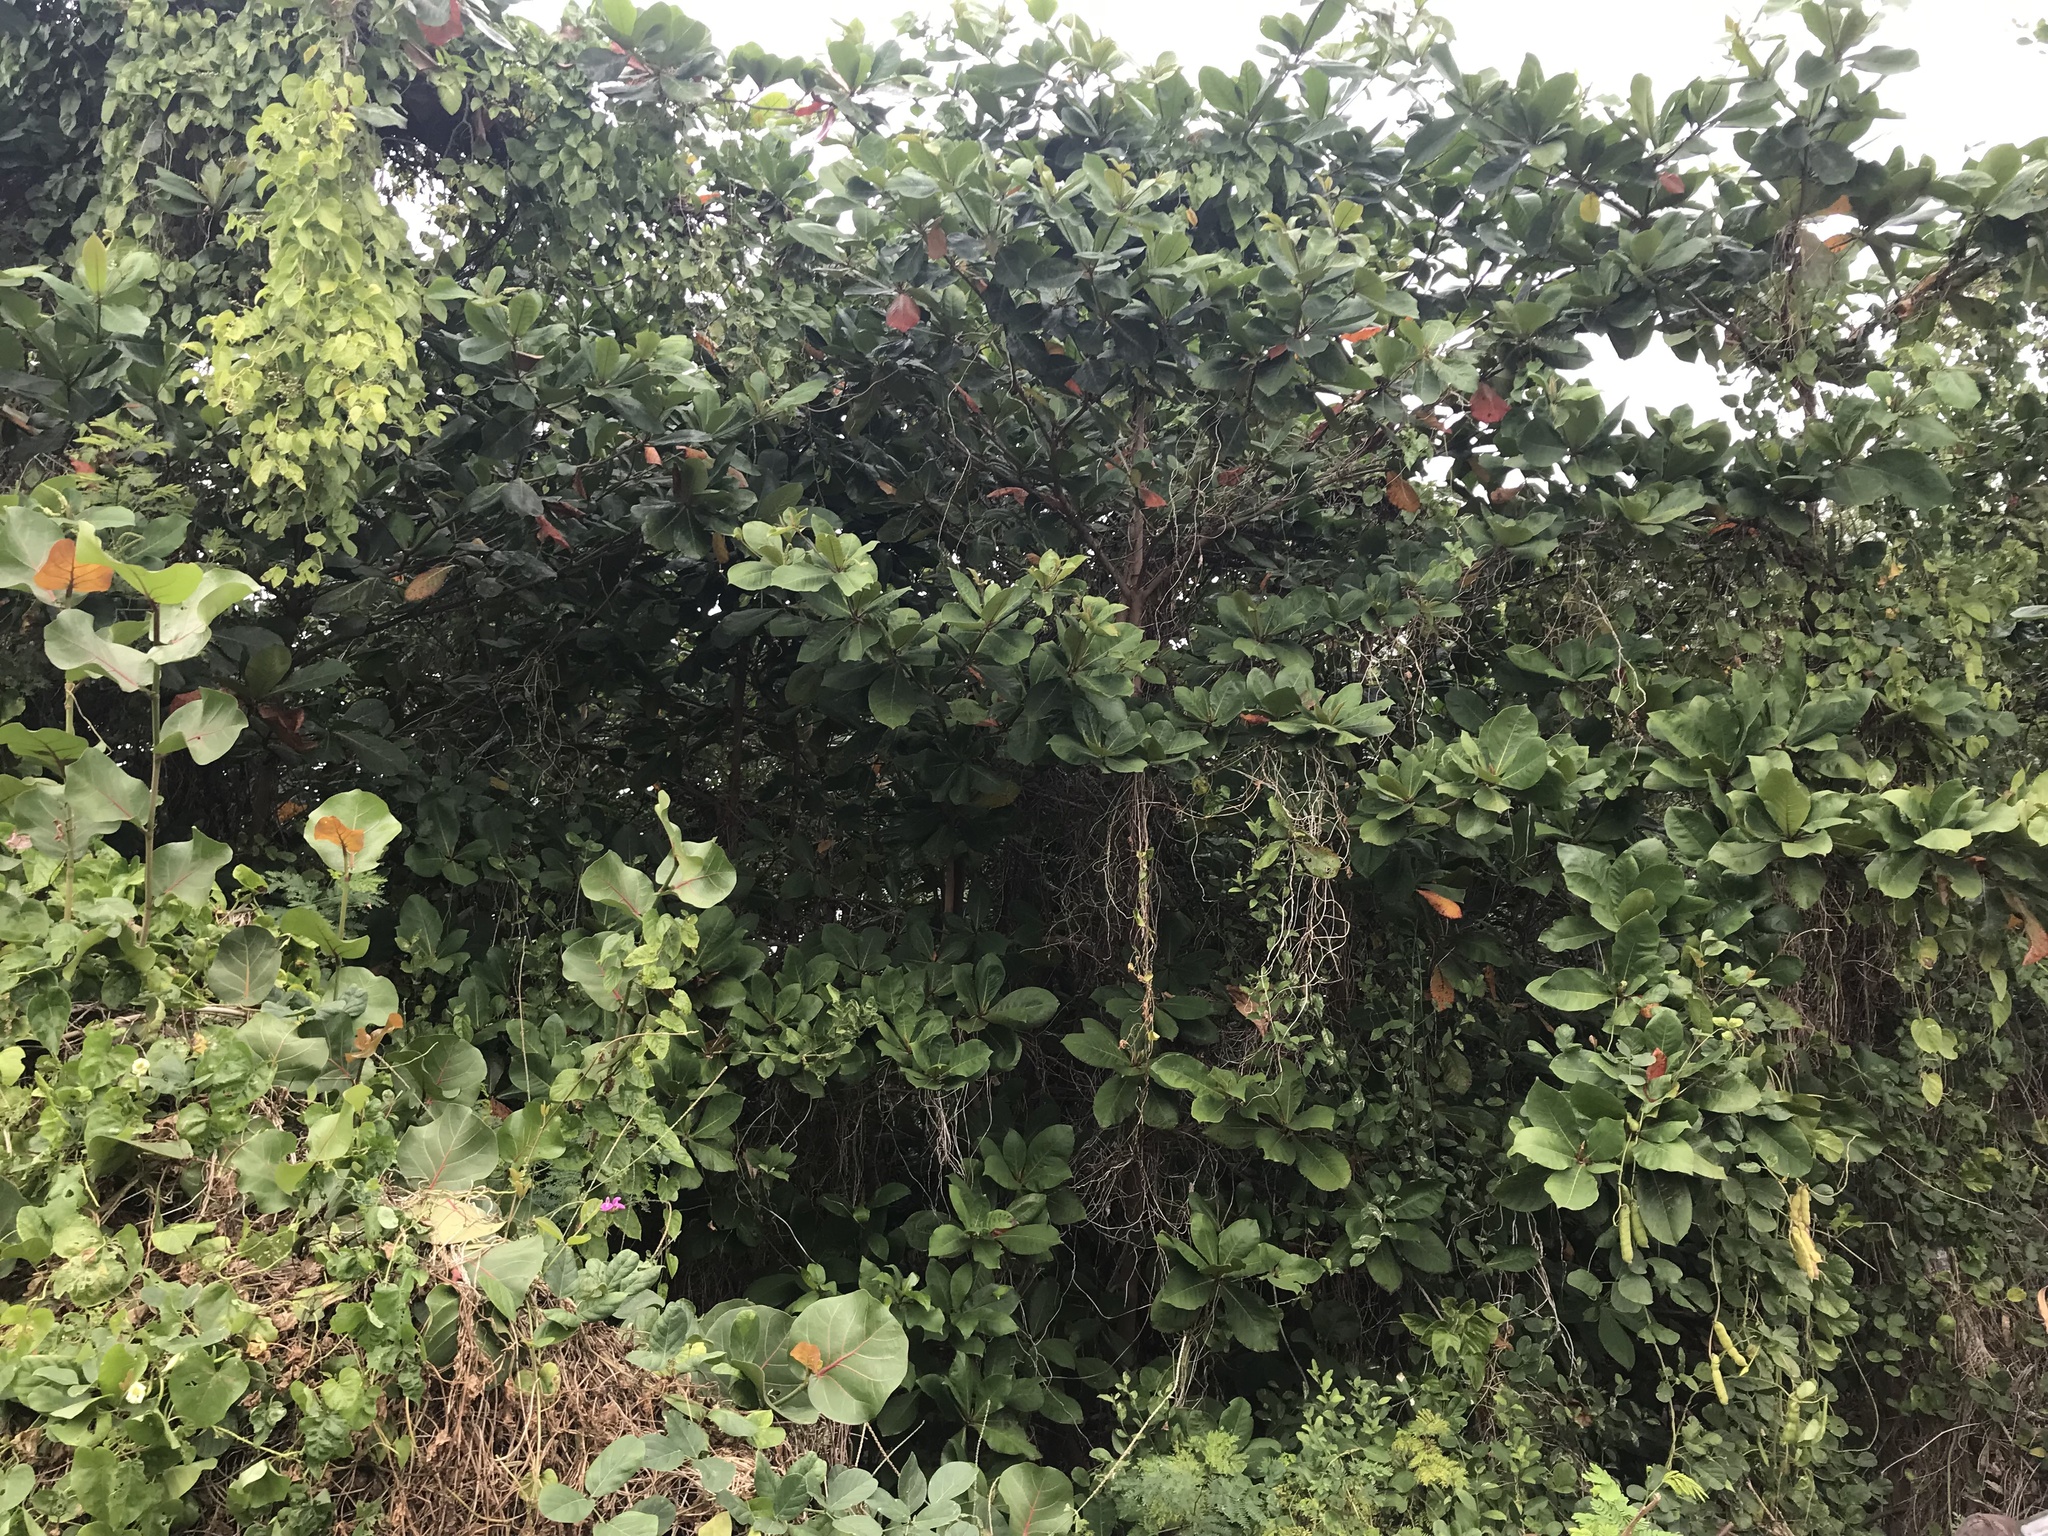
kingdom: Plantae
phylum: Tracheophyta
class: Magnoliopsida
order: Myrtales
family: Combretaceae
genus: Terminalia
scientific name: Terminalia catappa
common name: Tropical almond
